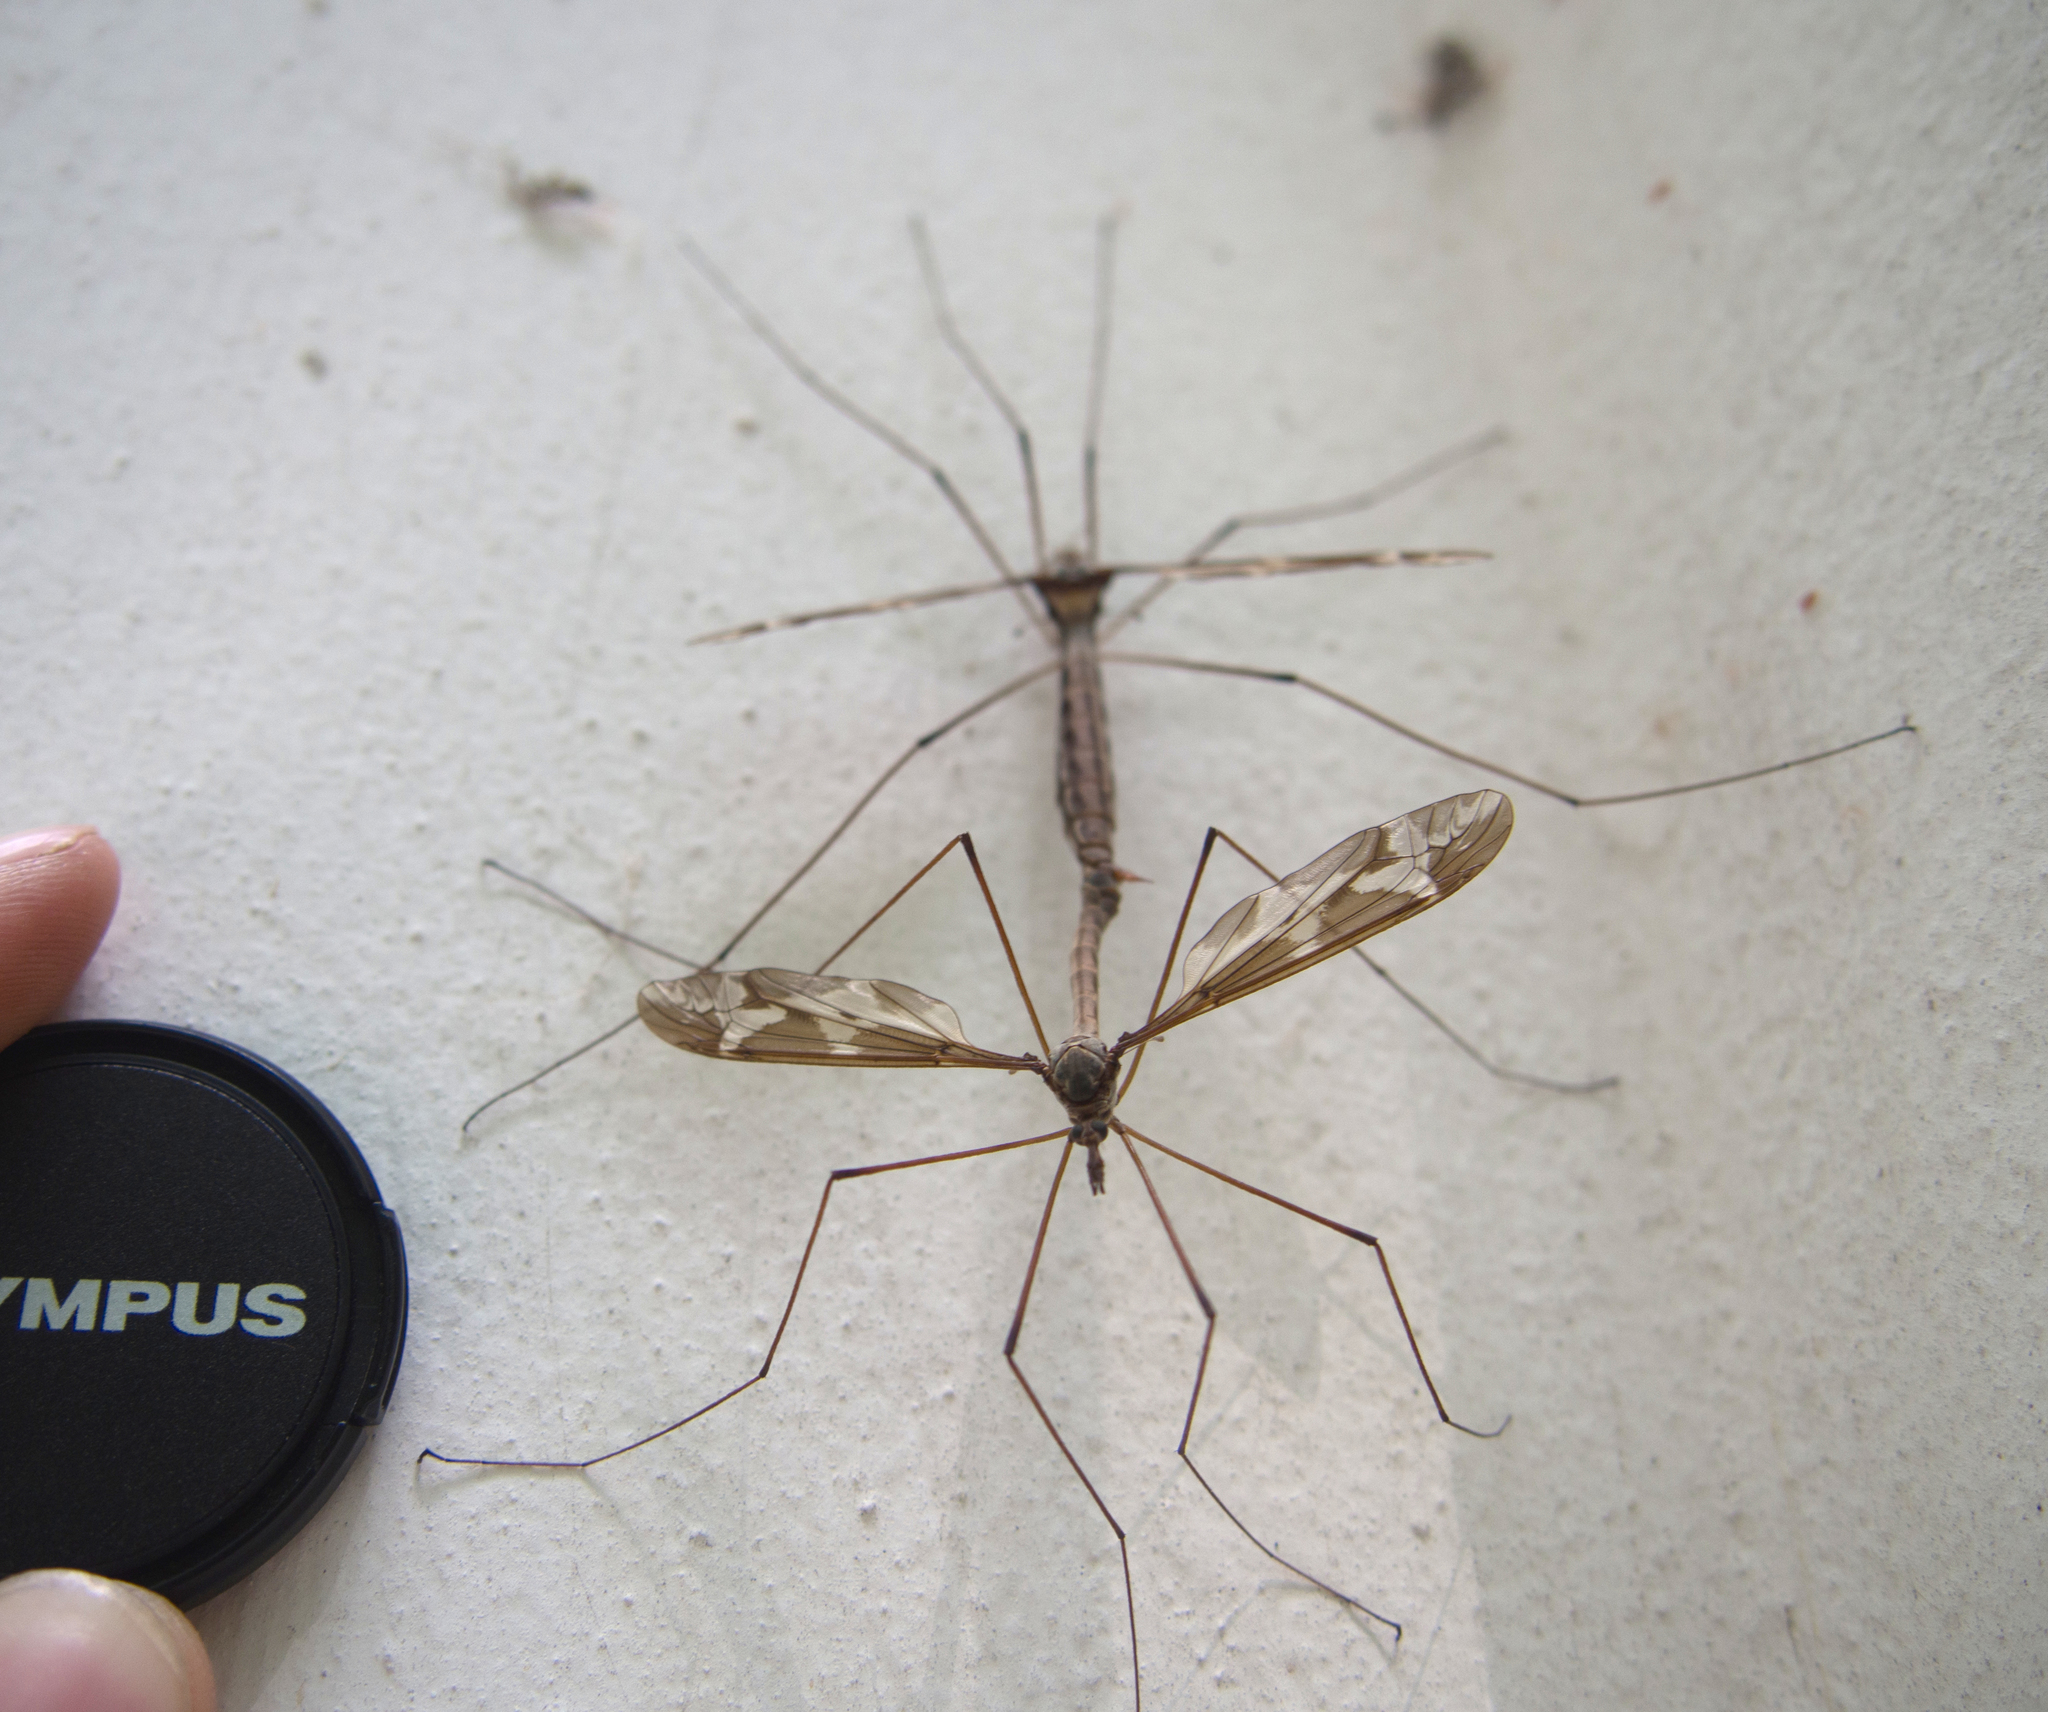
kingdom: Animalia
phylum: Arthropoda
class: Insecta
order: Diptera
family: Tipulidae
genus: Tipula
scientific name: Tipula maxima
